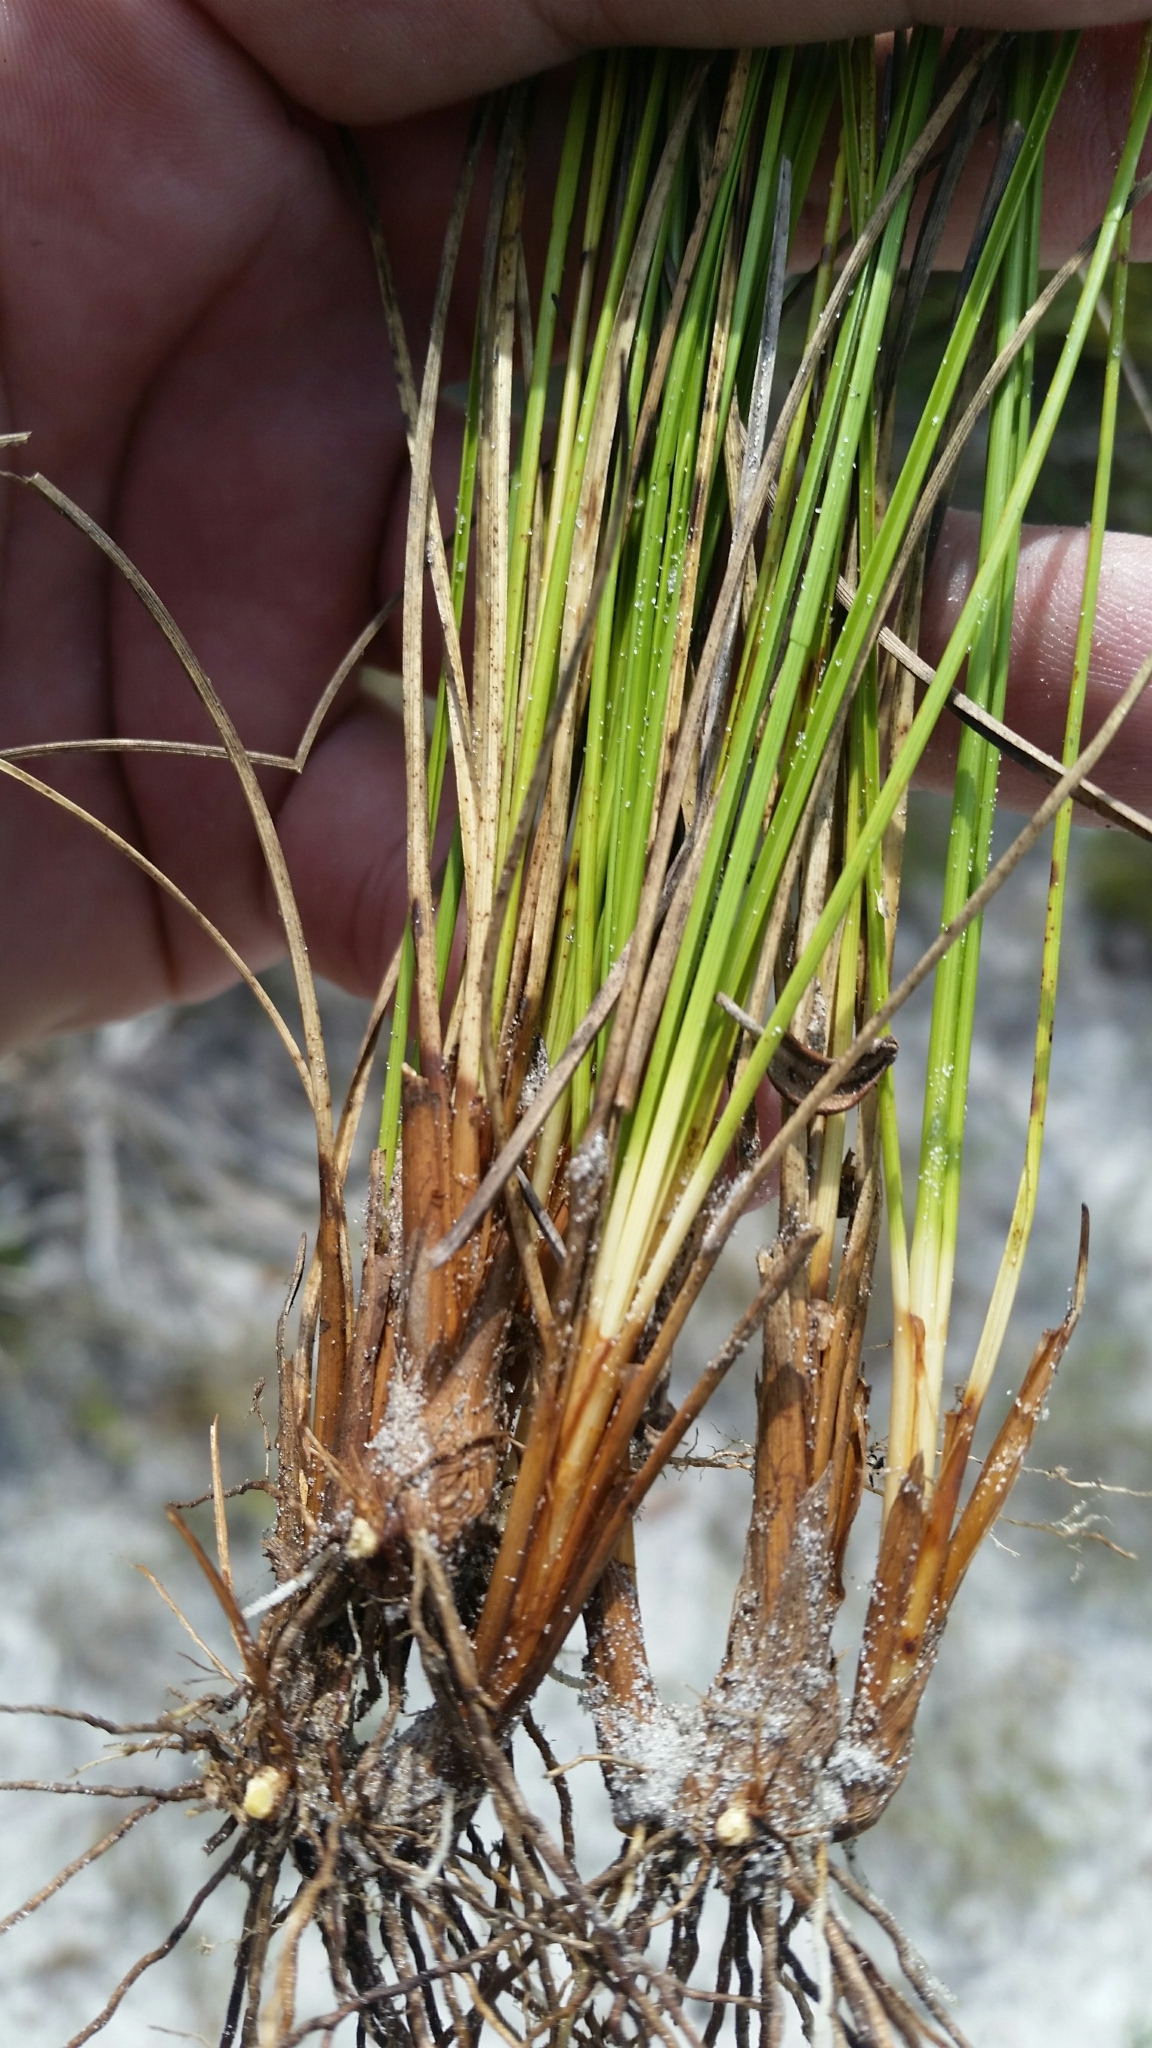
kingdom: Plantae
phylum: Tracheophyta
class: Liliopsida
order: Poales
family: Cyperaceae
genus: Rhynchospora
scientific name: Rhynchospora intermedia
